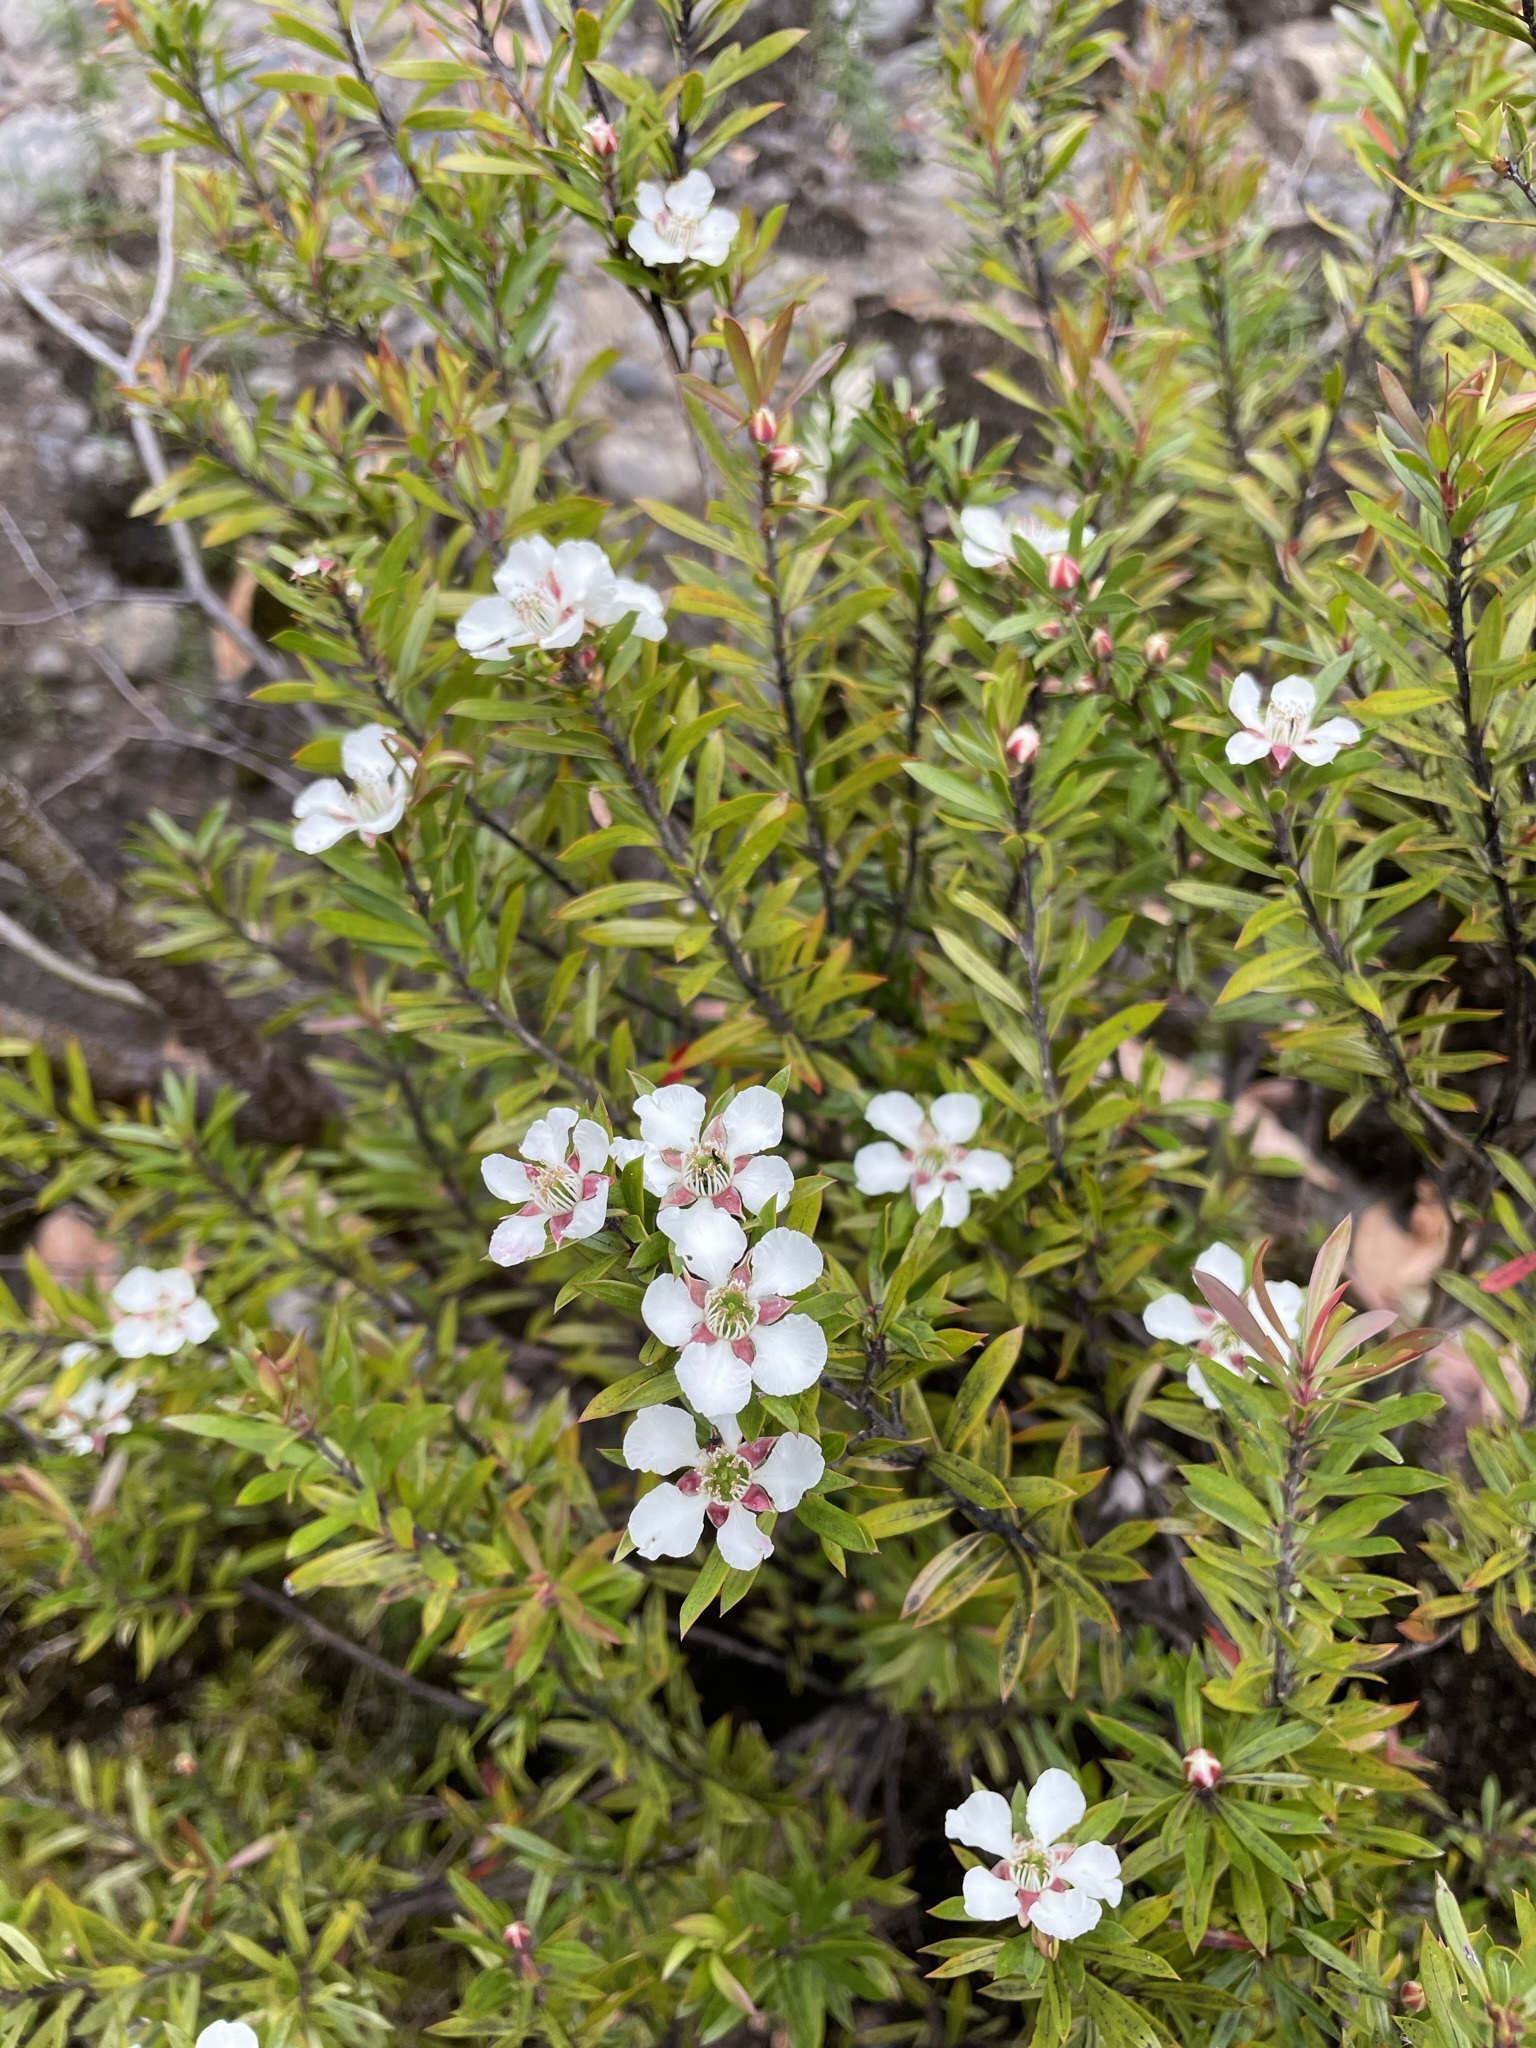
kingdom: Plantae
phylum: Tracheophyta
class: Magnoliopsida
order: Myrtales
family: Myrtaceae
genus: Leptospermum
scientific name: Leptospermum riparium
